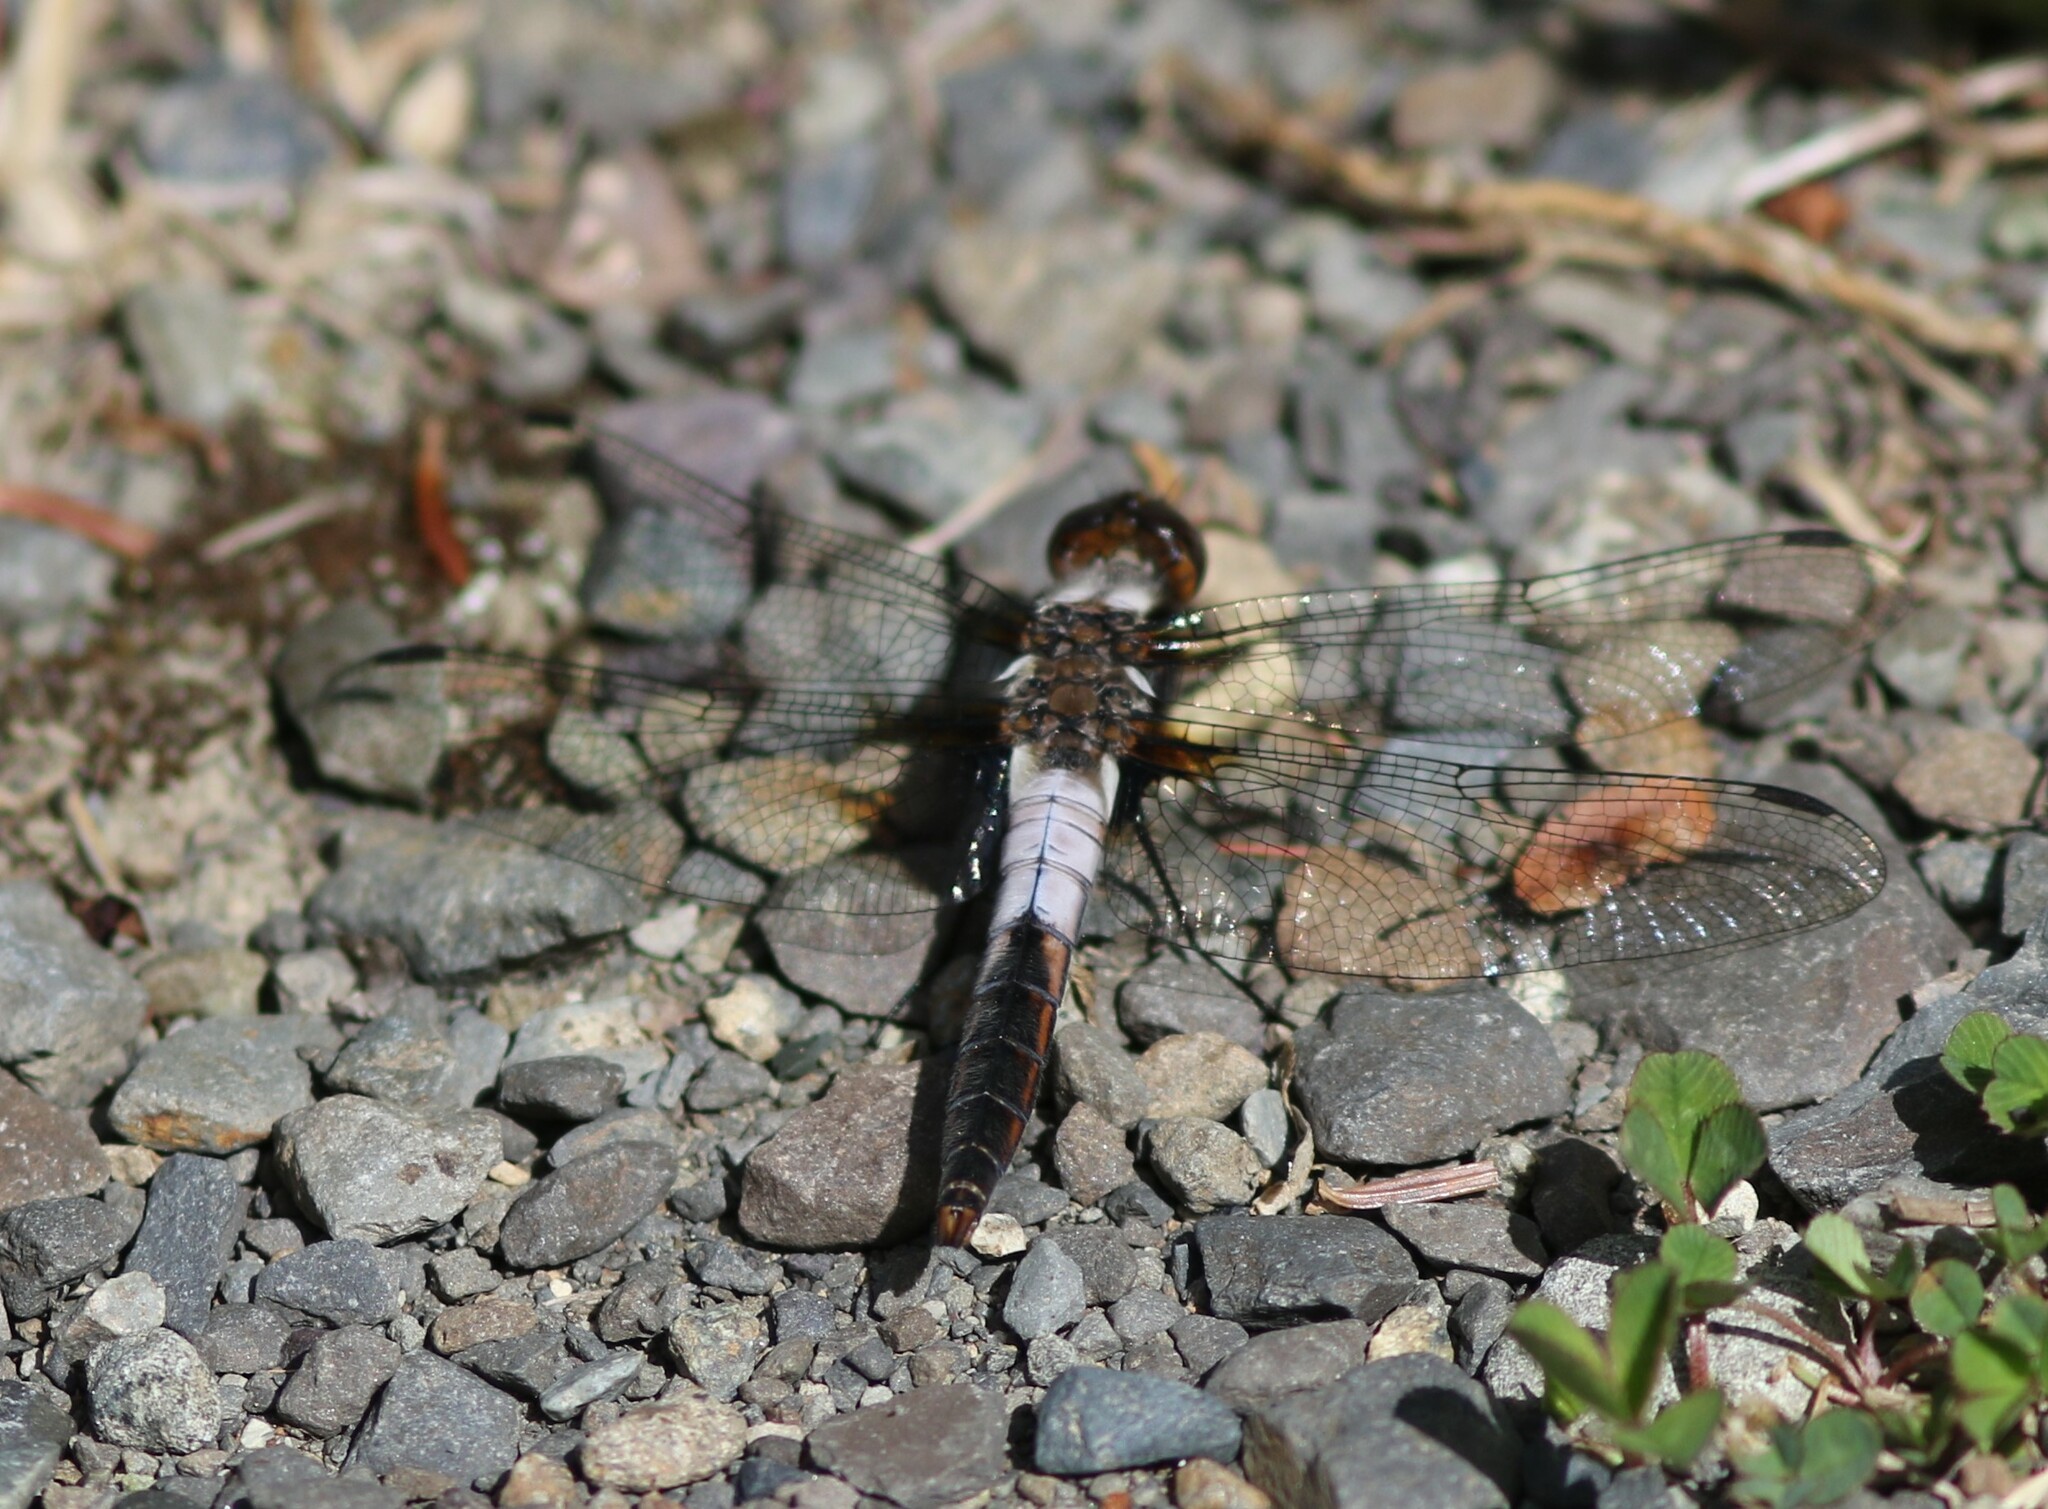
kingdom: Animalia
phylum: Arthropoda
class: Insecta
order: Odonata
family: Libellulidae
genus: Ladona
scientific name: Ladona julia
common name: Chalk-fronted corporal
